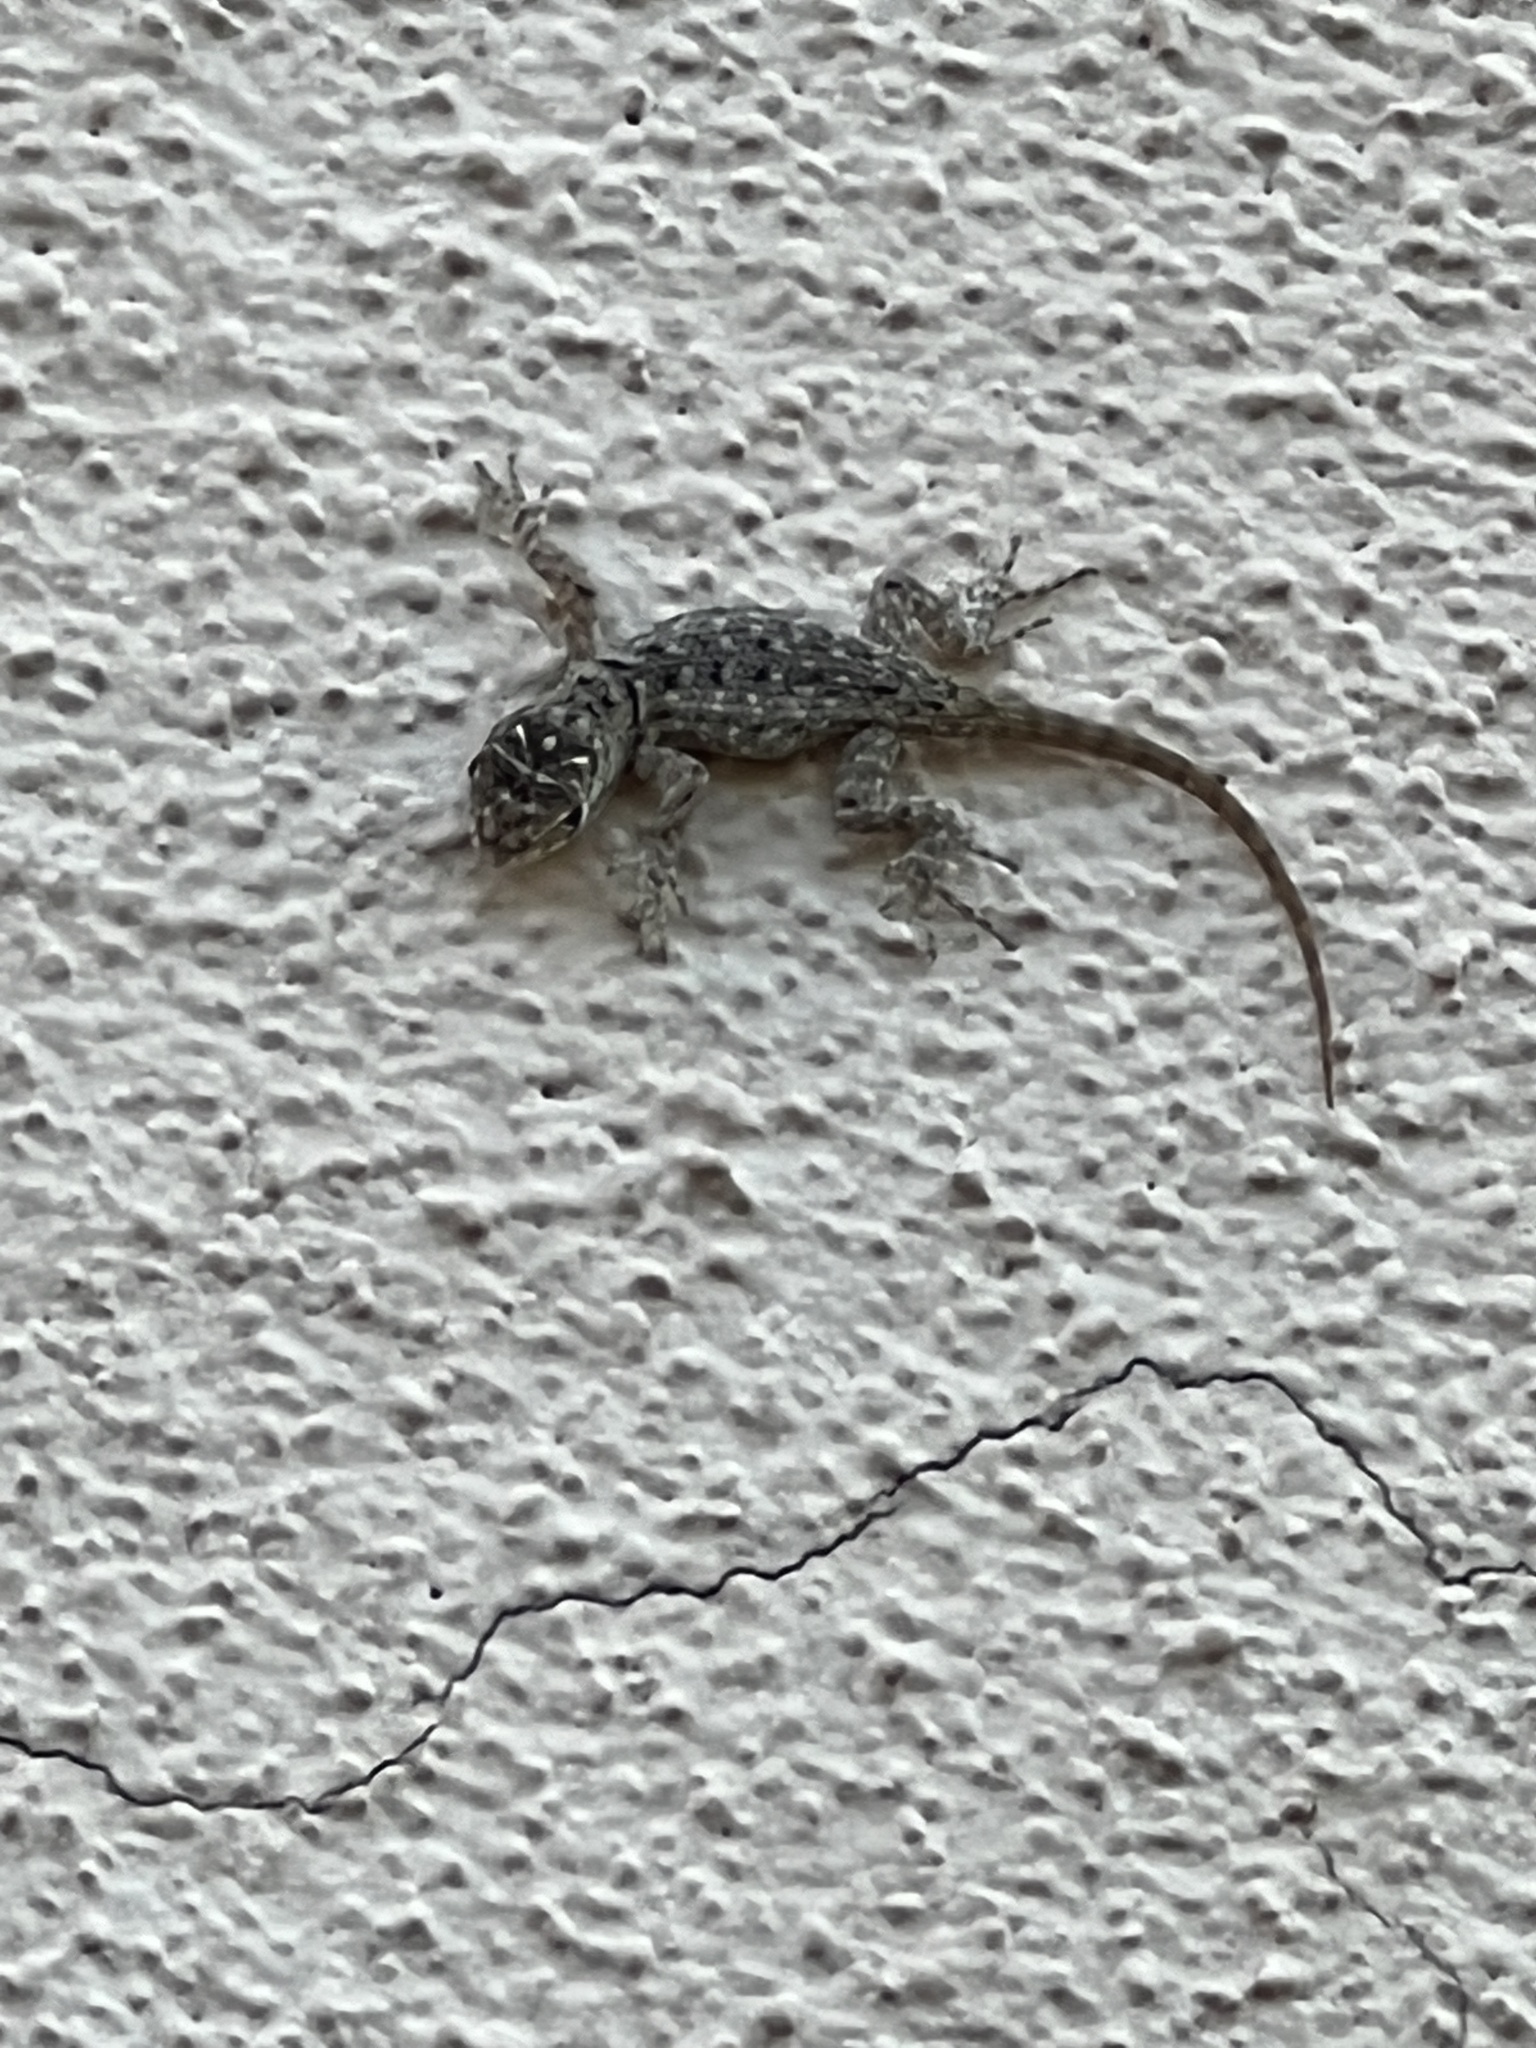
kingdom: Animalia
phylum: Chordata
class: Squamata
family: Phrynosomatidae
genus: Sceloporus
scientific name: Sceloporus magister
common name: Desert spiny lizard
